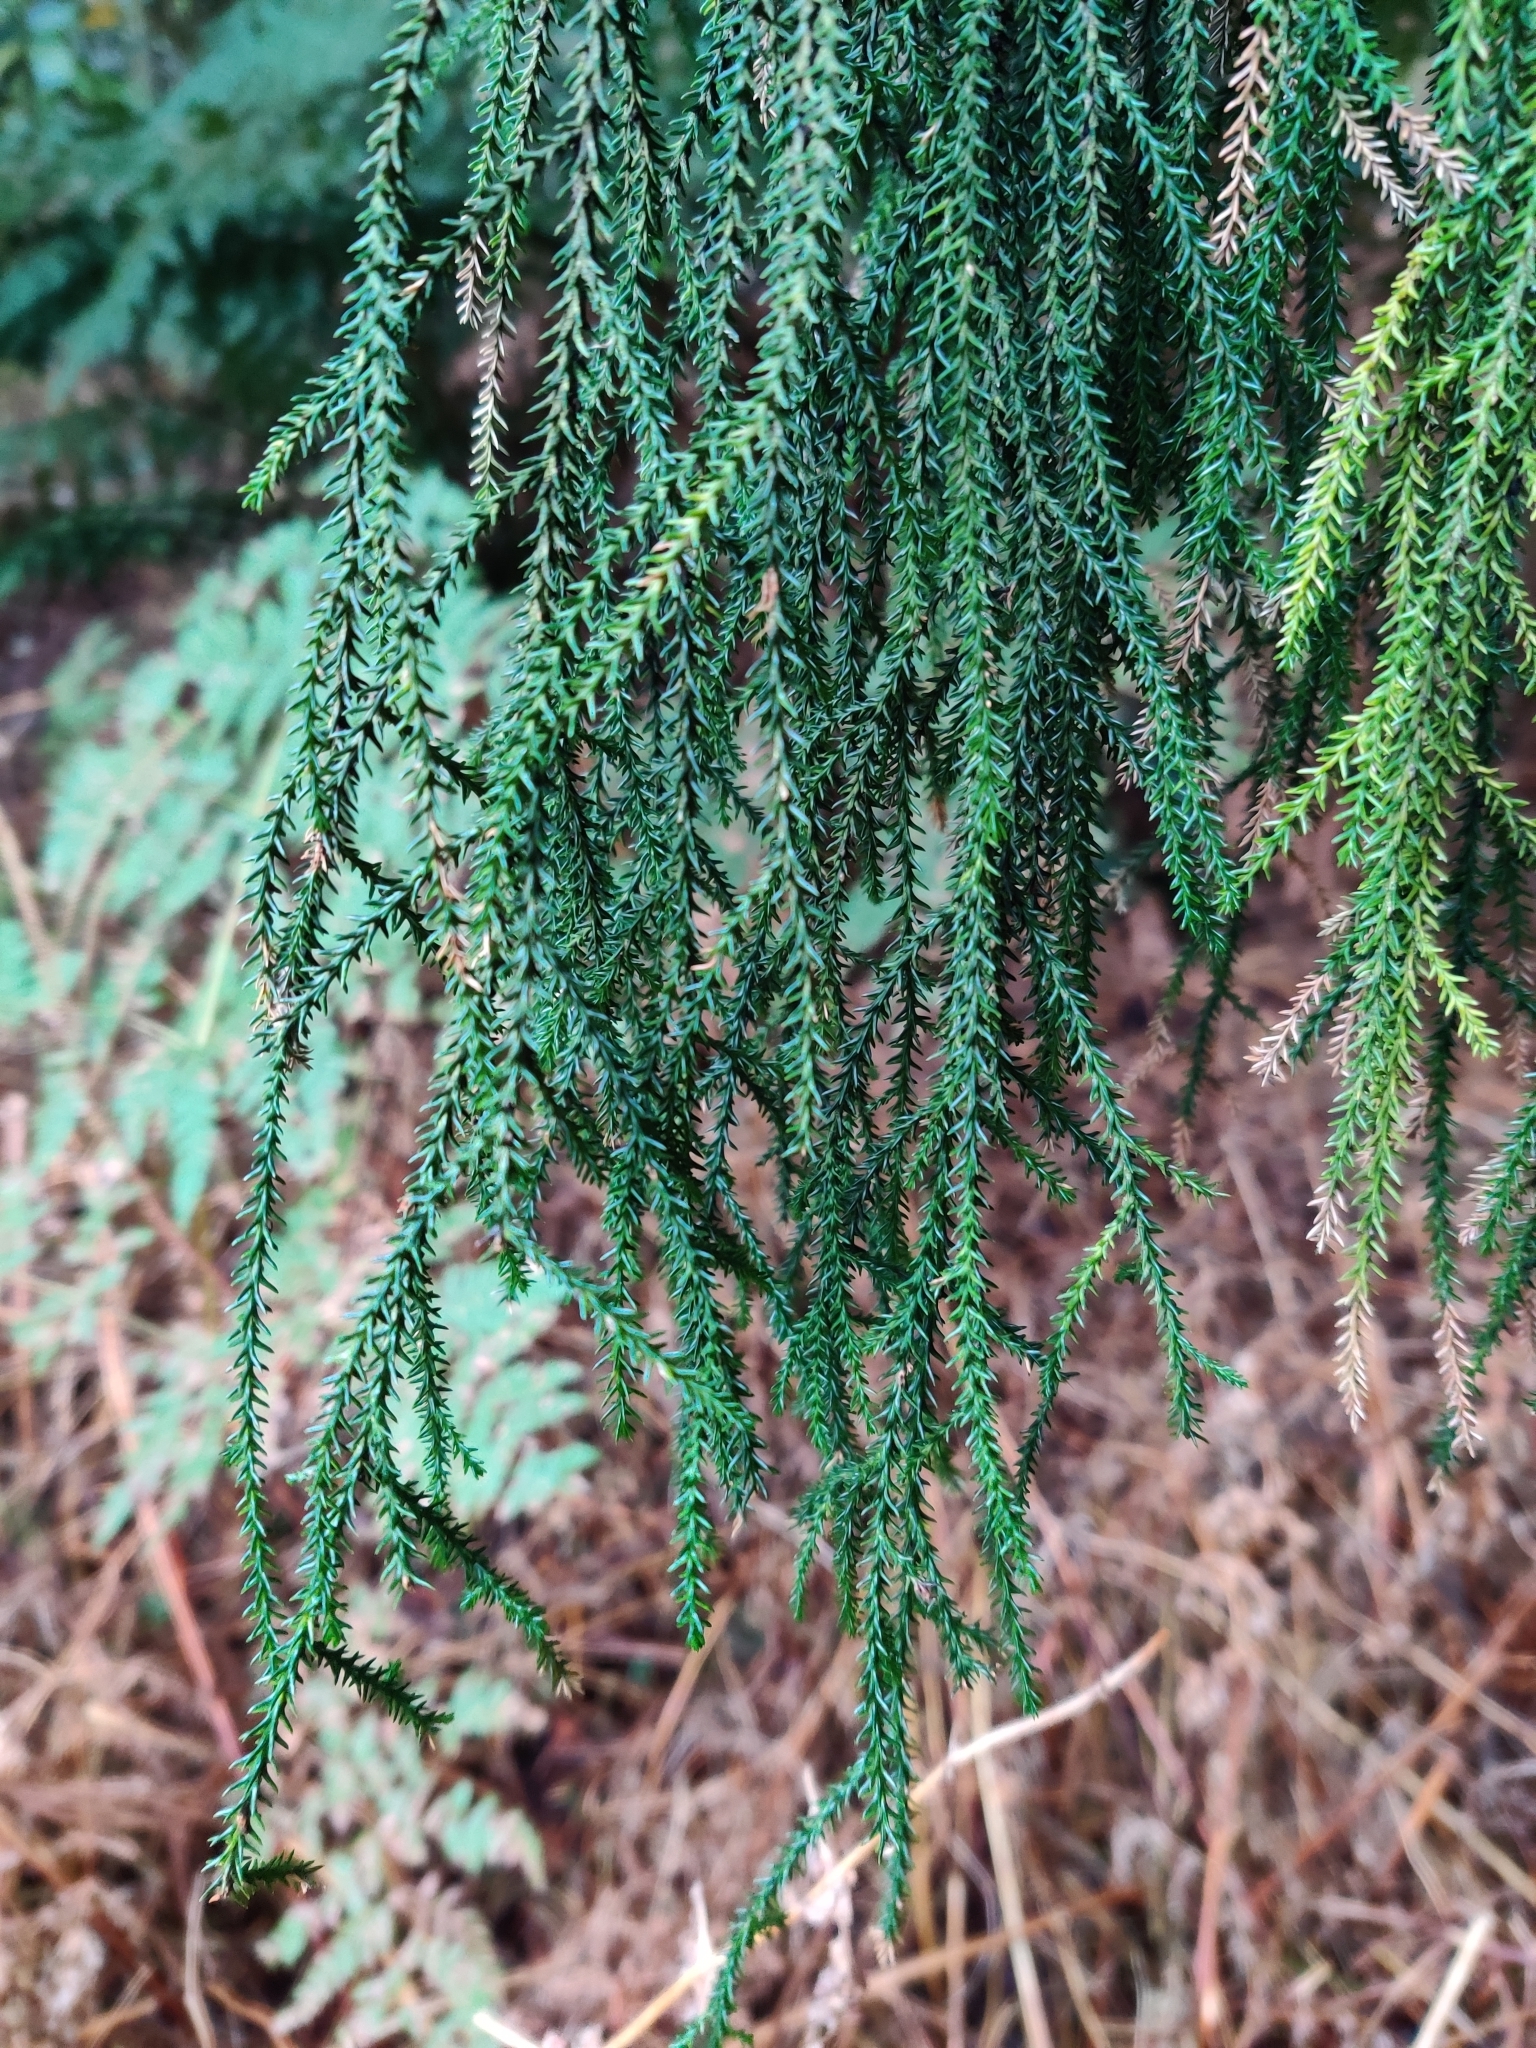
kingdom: Plantae
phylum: Tracheophyta
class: Pinopsida
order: Pinales
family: Podocarpaceae
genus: Dacrydium
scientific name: Dacrydium cupressinum
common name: Red pine
